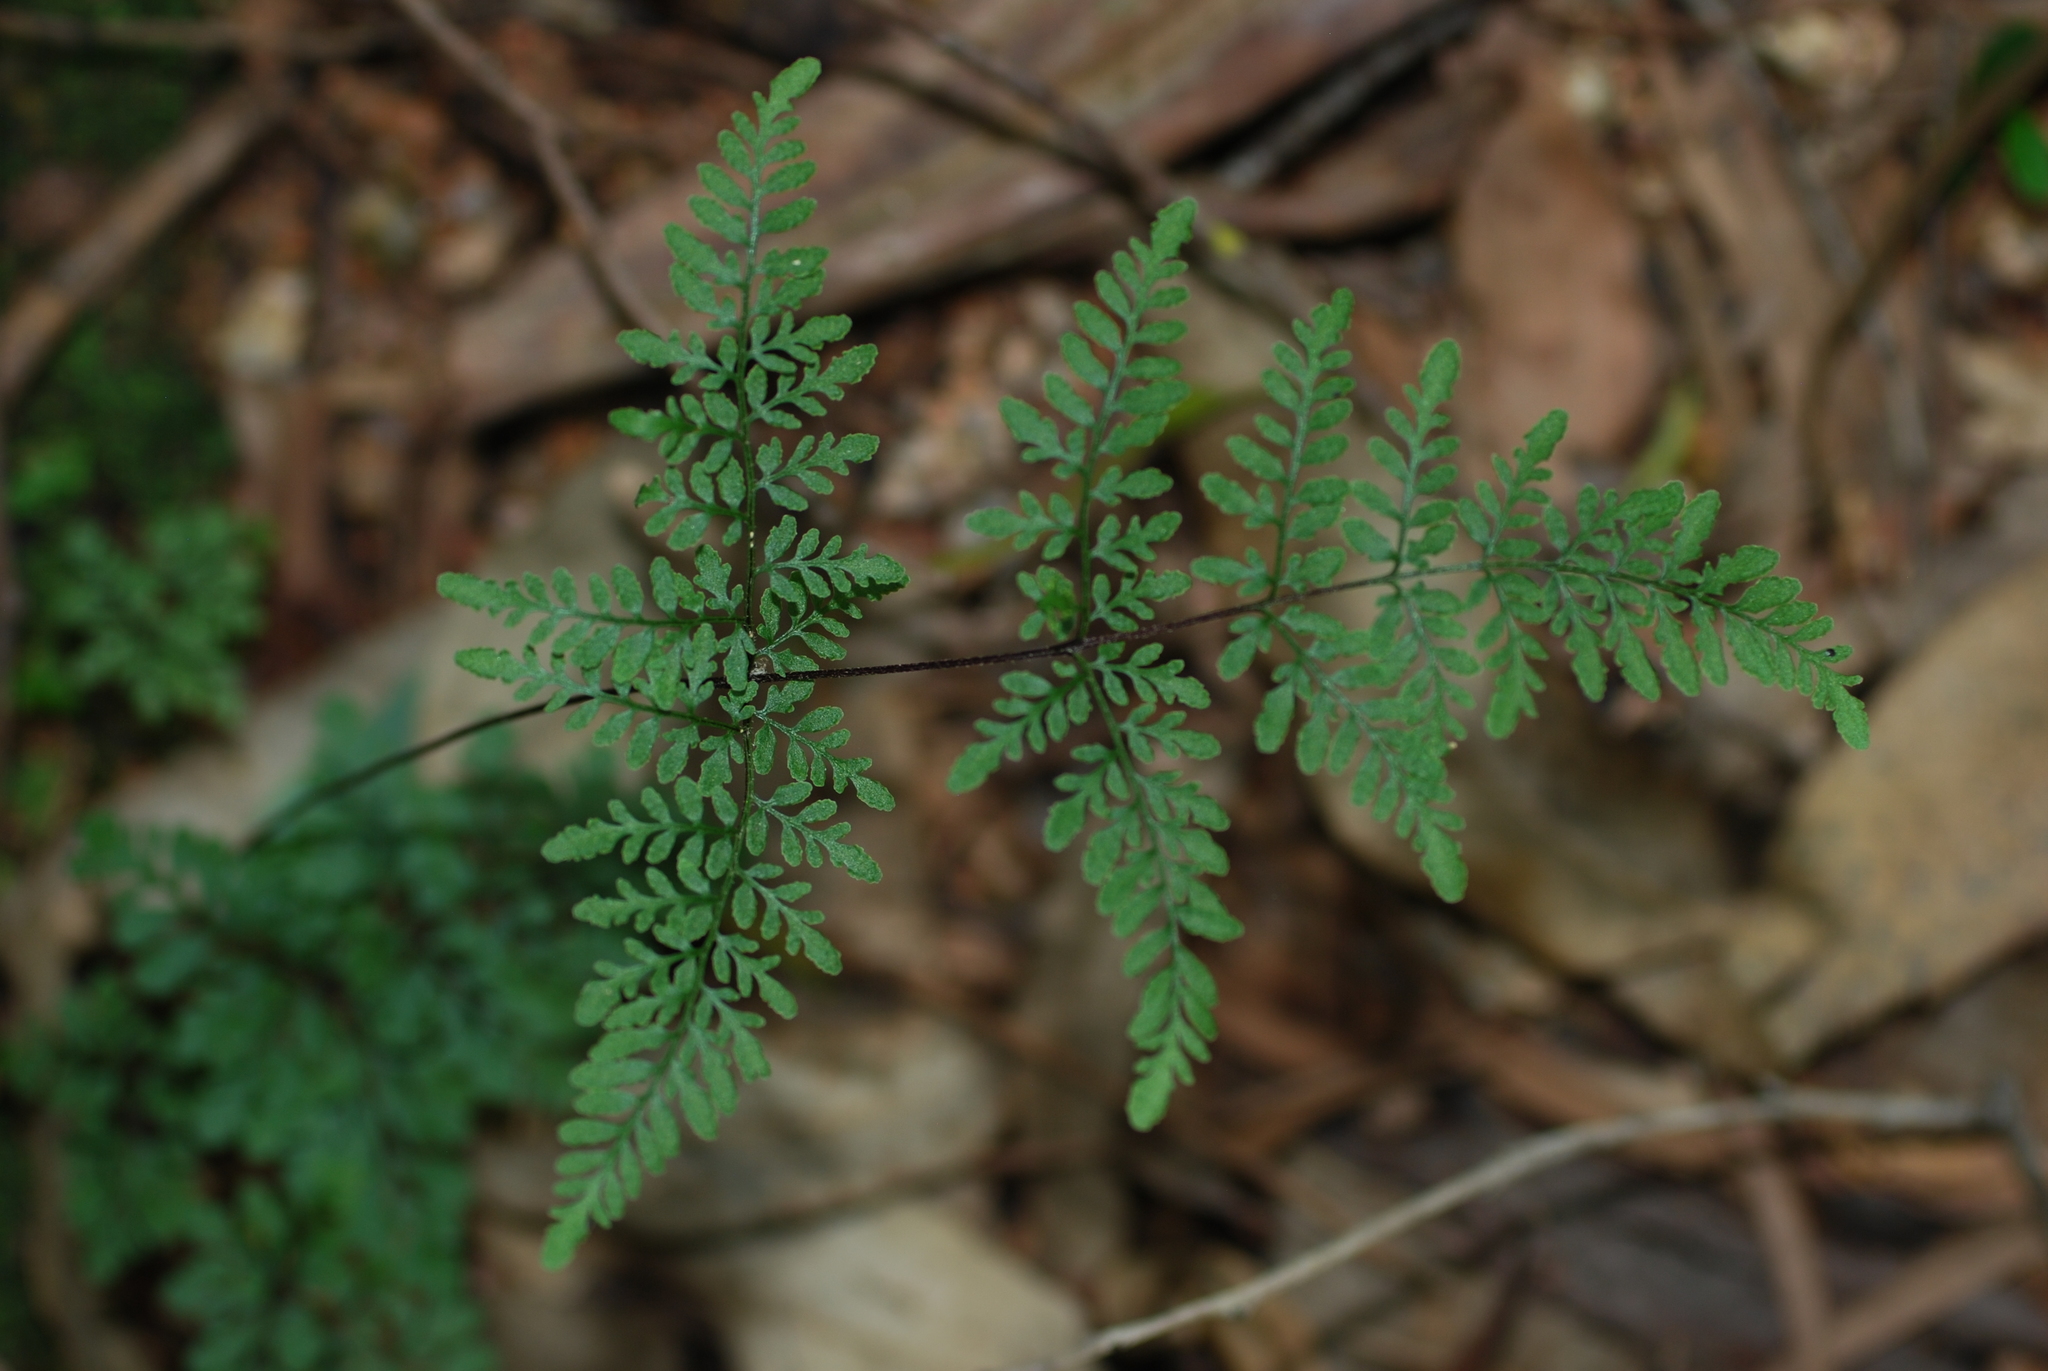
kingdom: Plantae
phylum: Tracheophyta
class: Polypodiopsida
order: Polypodiales
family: Pteridaceae
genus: Cheilanthes
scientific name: Cheilanthes tenuifolia
